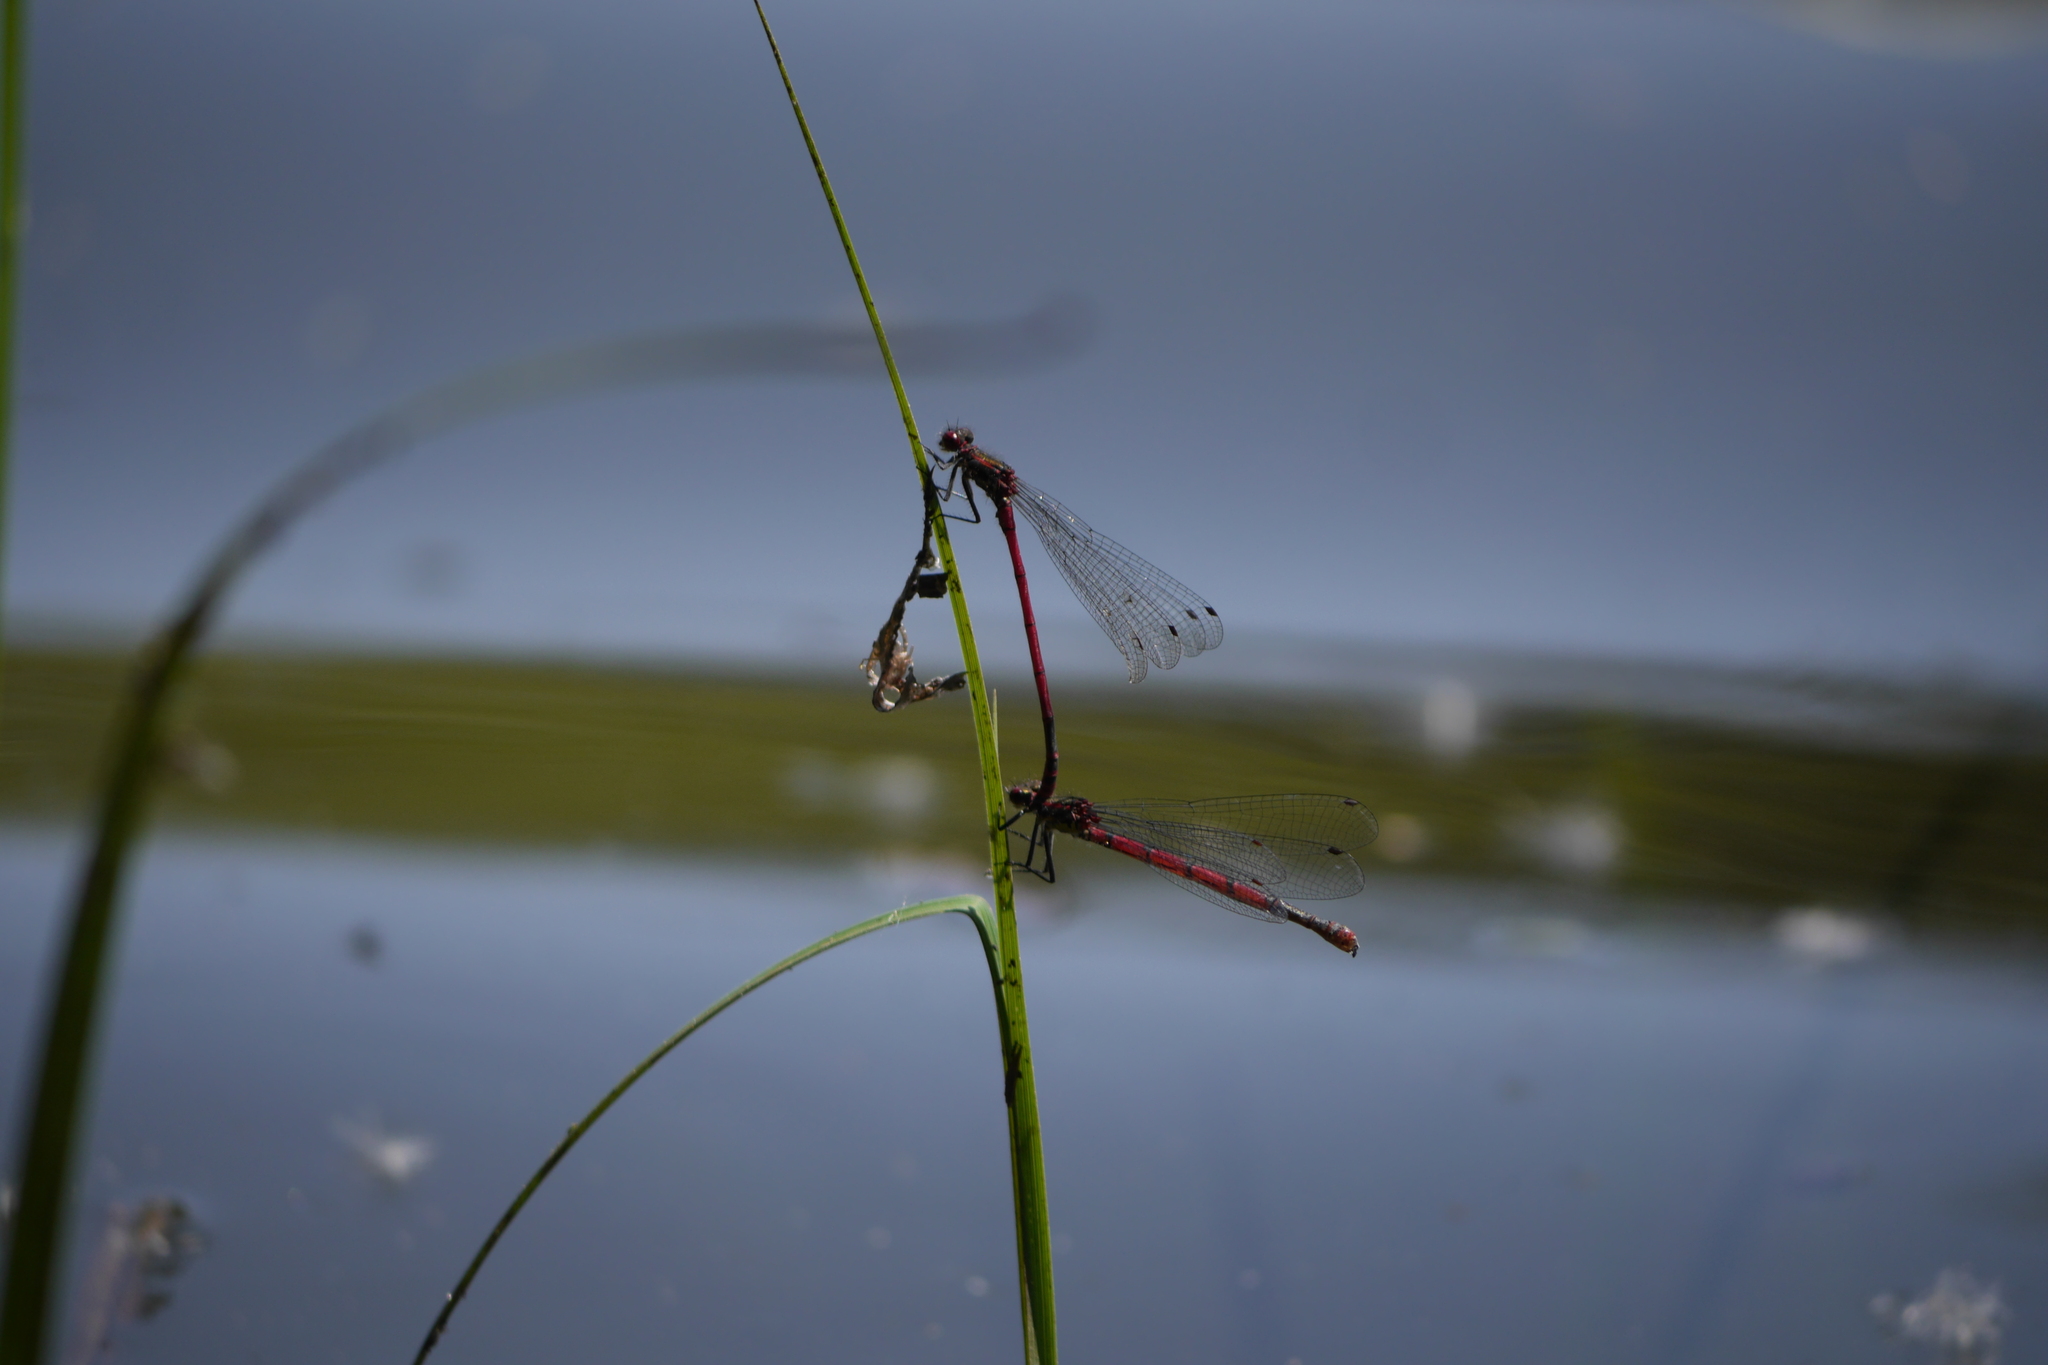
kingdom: Animalia
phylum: Arthropoda
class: Insecta
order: Odonata
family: Coenagrionidae
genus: Pyrrhosoma
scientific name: Pyrrhosoma nymphula
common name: Large red damsel
